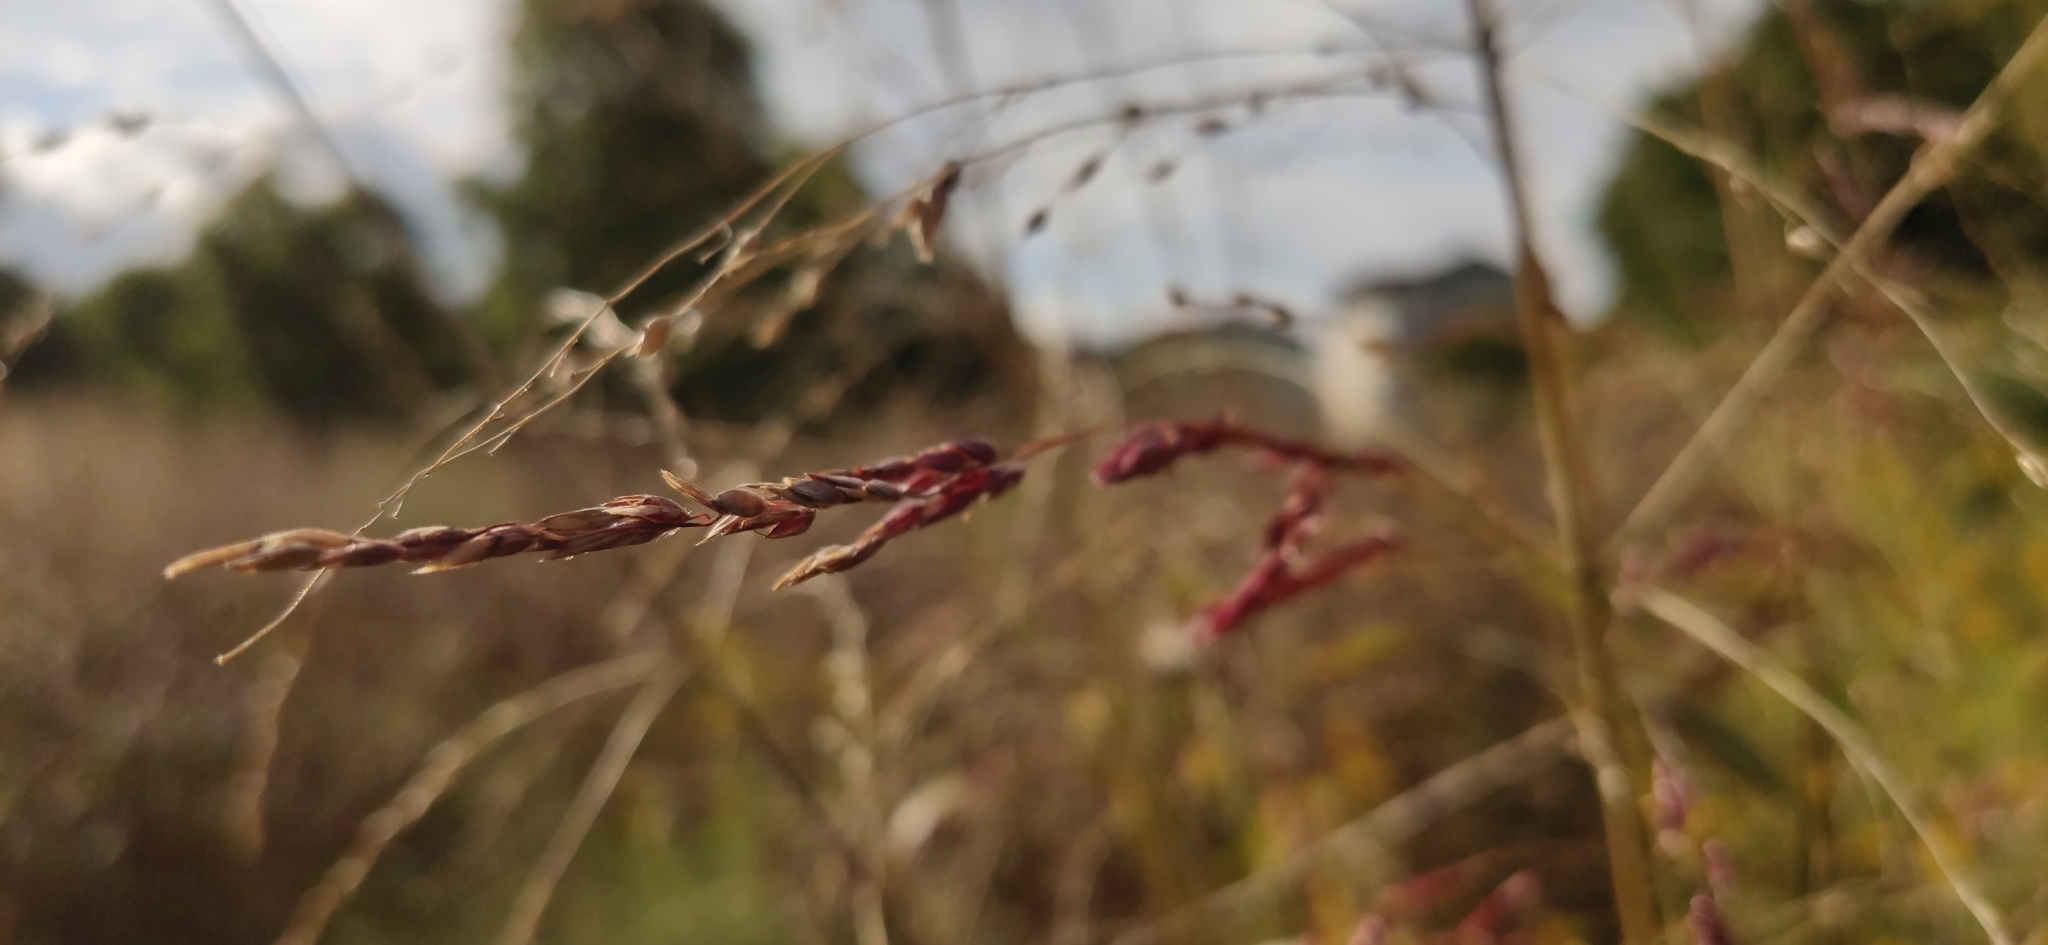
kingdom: Plantae
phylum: Tracheophyta
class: Liliopsida
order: Poales
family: Poaceae
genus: Sorghum
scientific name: Sorghum halepense
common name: Johnson-grass
